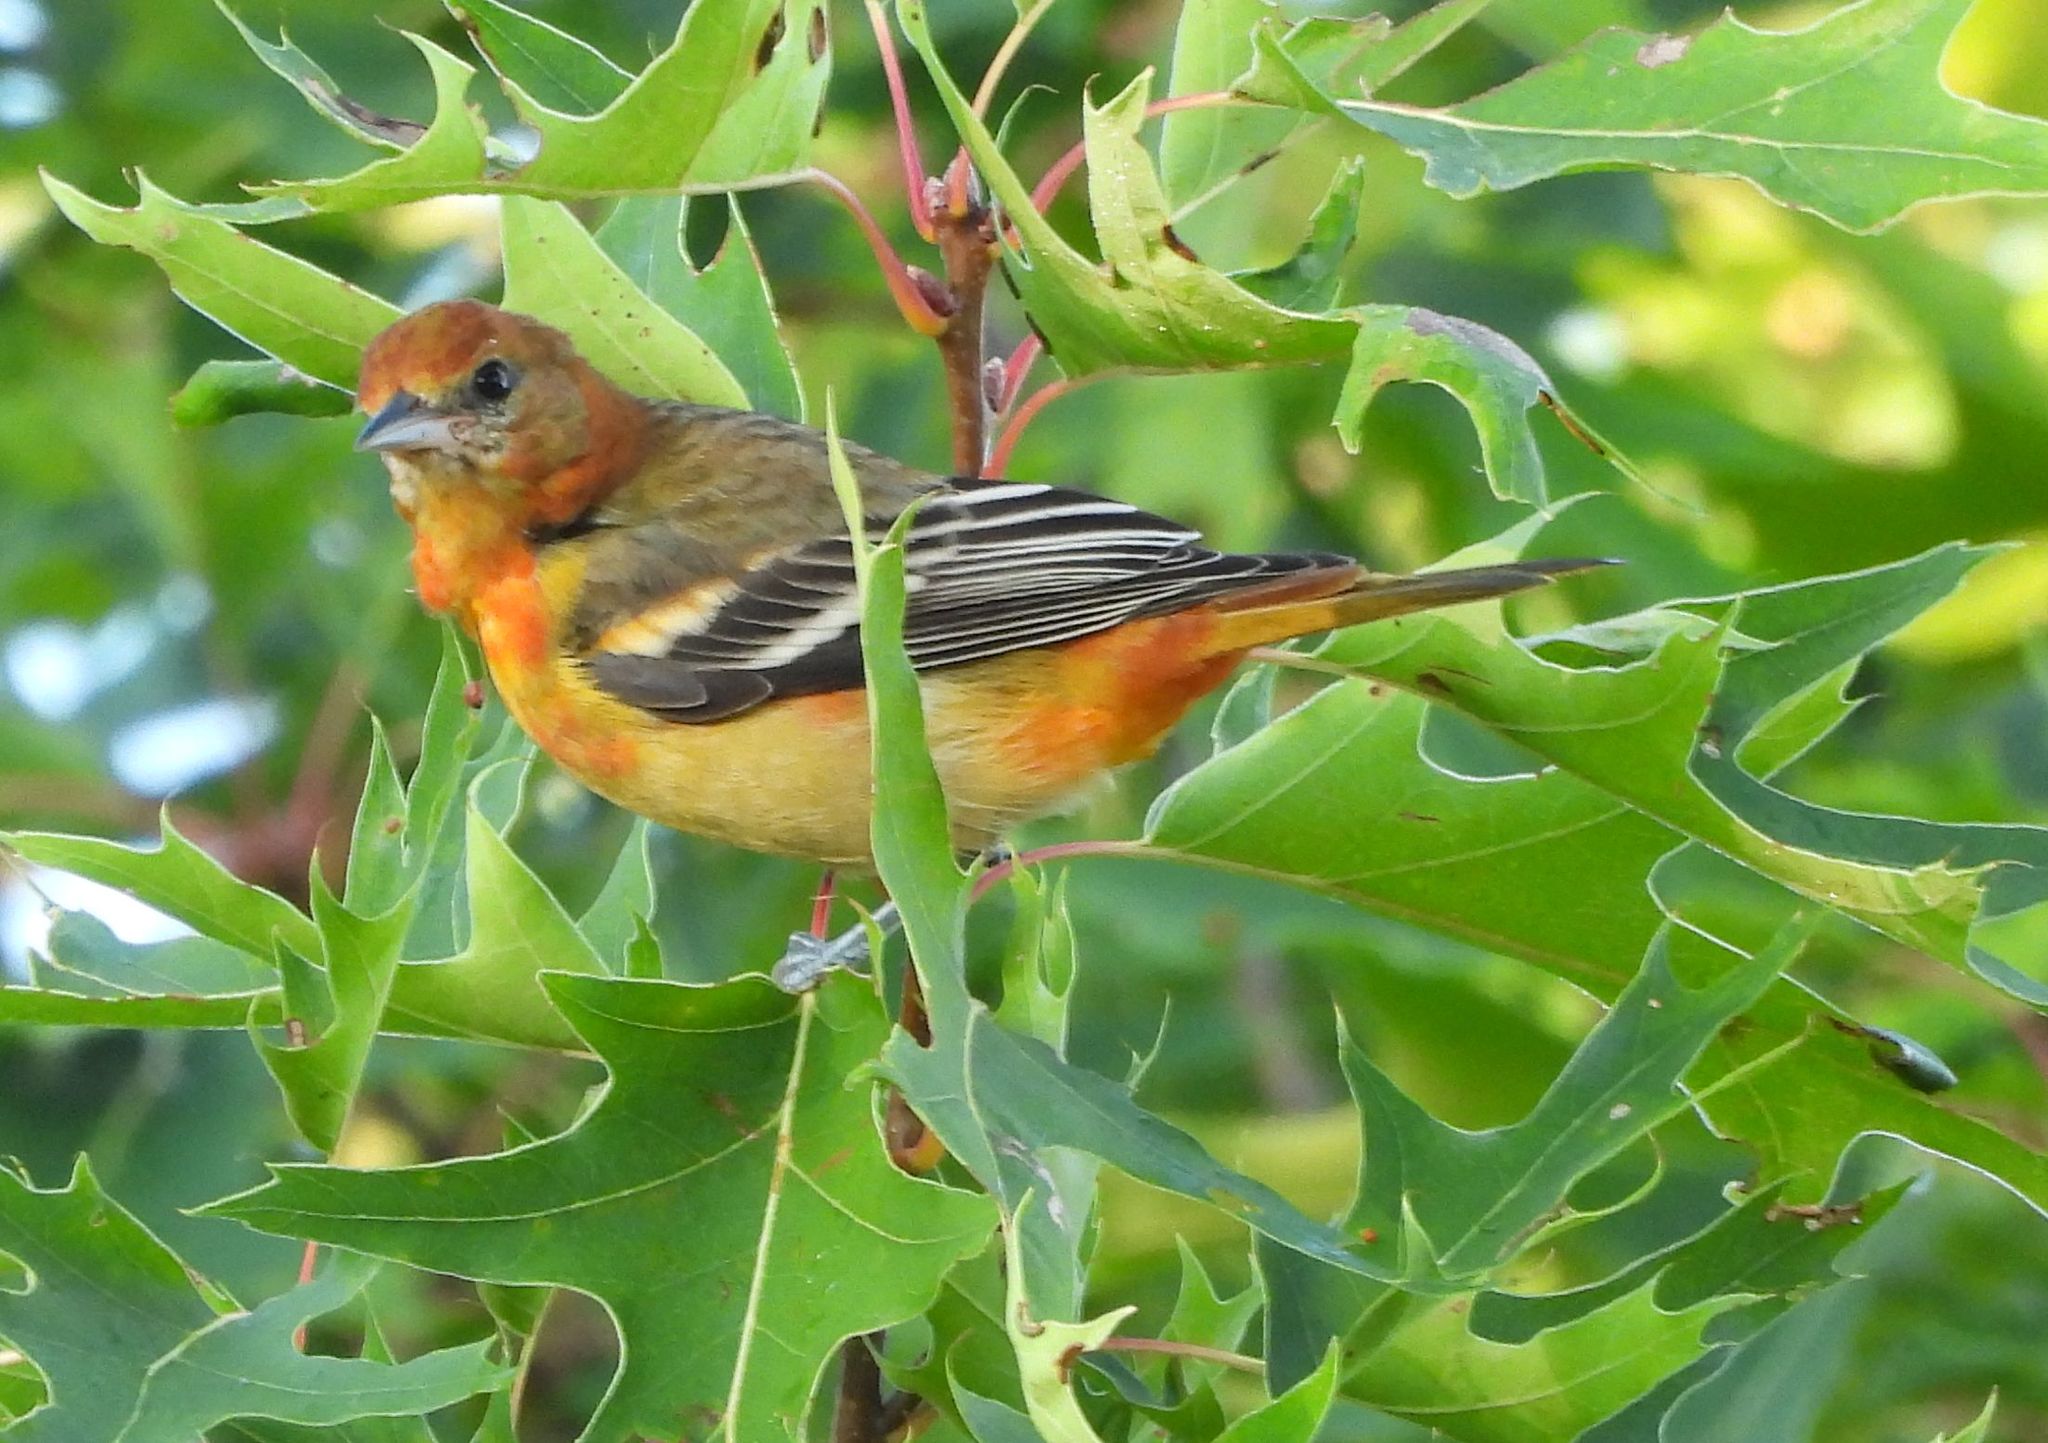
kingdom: Animalia
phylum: Chordata
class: Aves
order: Passeriformes
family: Icteridae
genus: Icterus
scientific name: Icterus galbula
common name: Baltimore oriole
